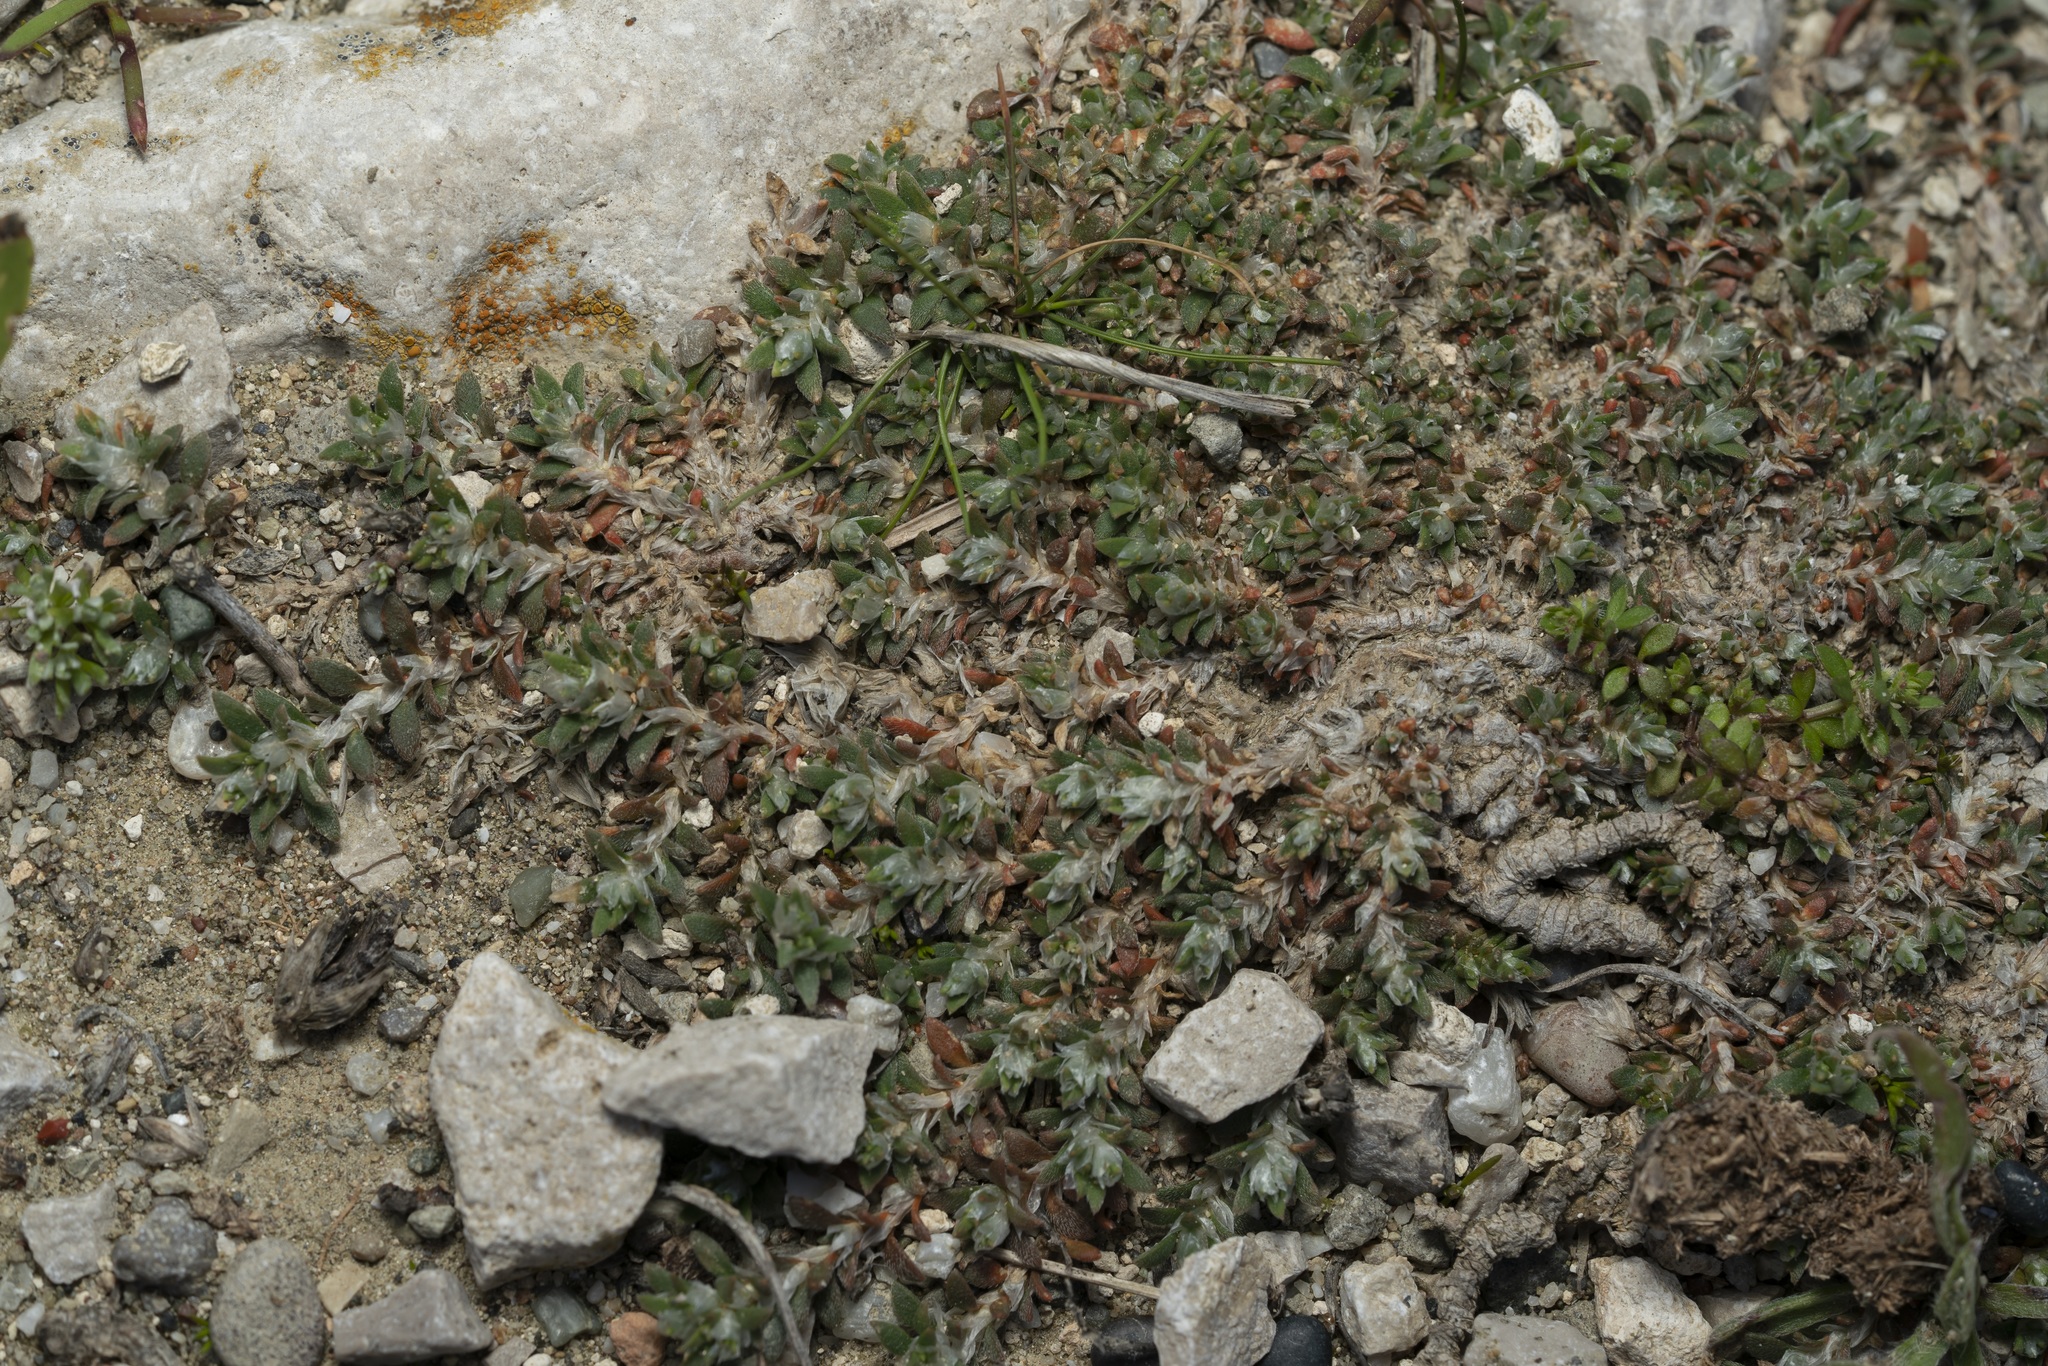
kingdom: Plantae
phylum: Tracheophyta
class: Magnoliopsida
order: Caryophyllales
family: Caryophyllaceae
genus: Paronychia
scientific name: Paronychia macrosepala
